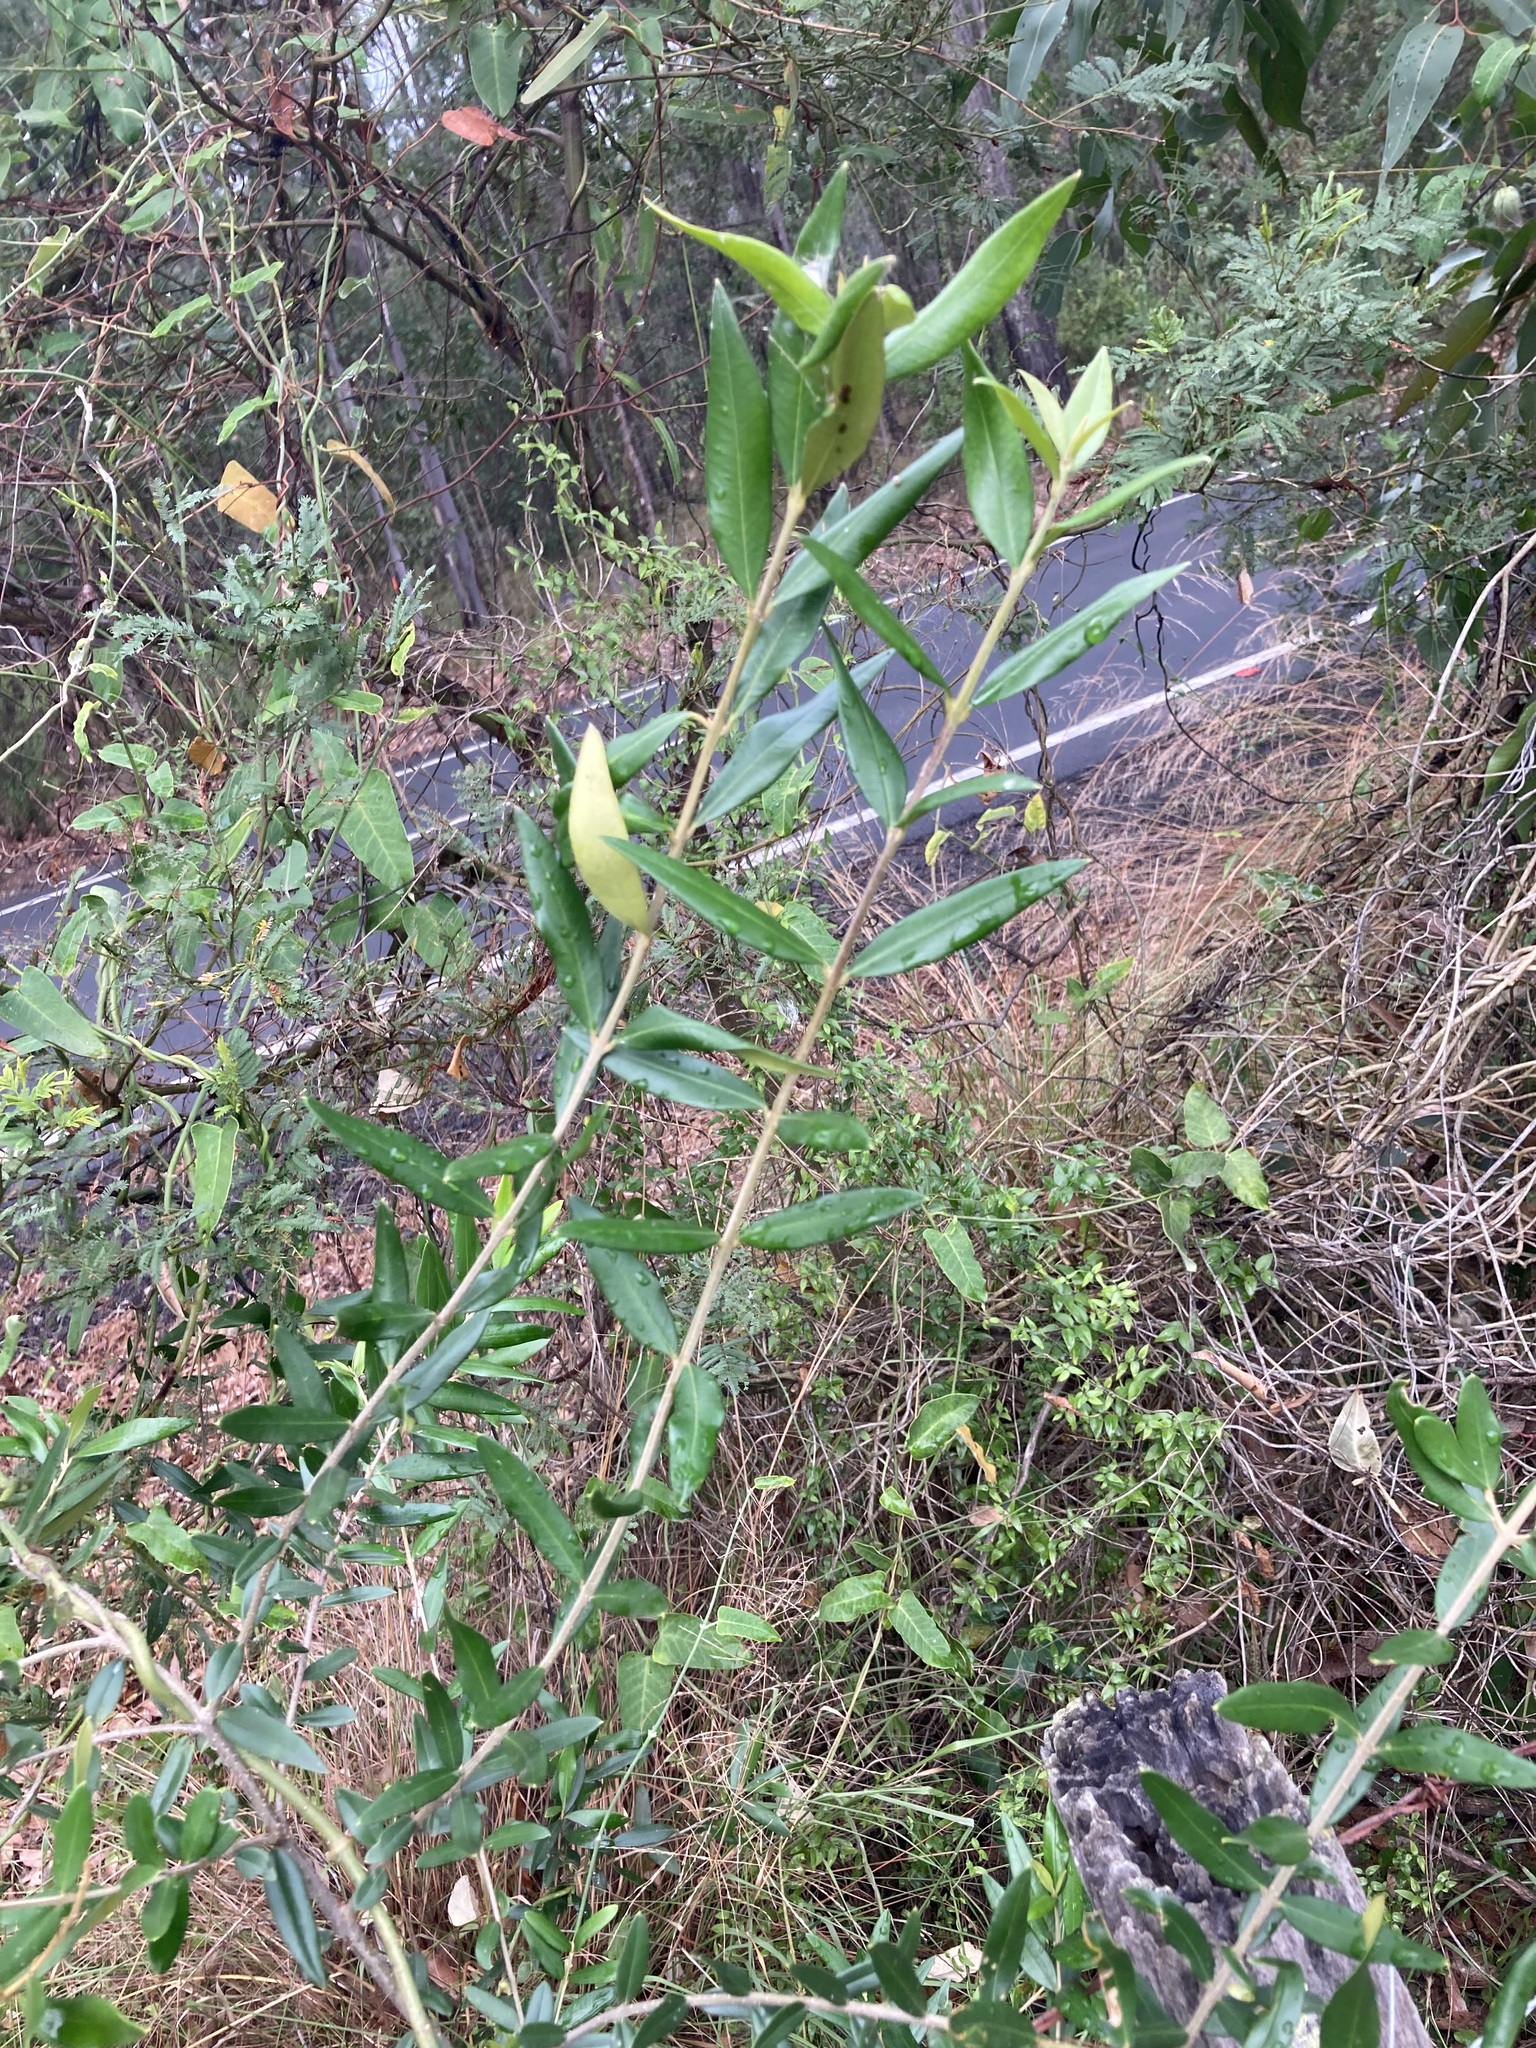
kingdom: Plantae
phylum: Tracheophyta
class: Magnoliopsida
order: Lamiales
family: Oleaceae
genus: Olea
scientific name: Olea europaea
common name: Olive
